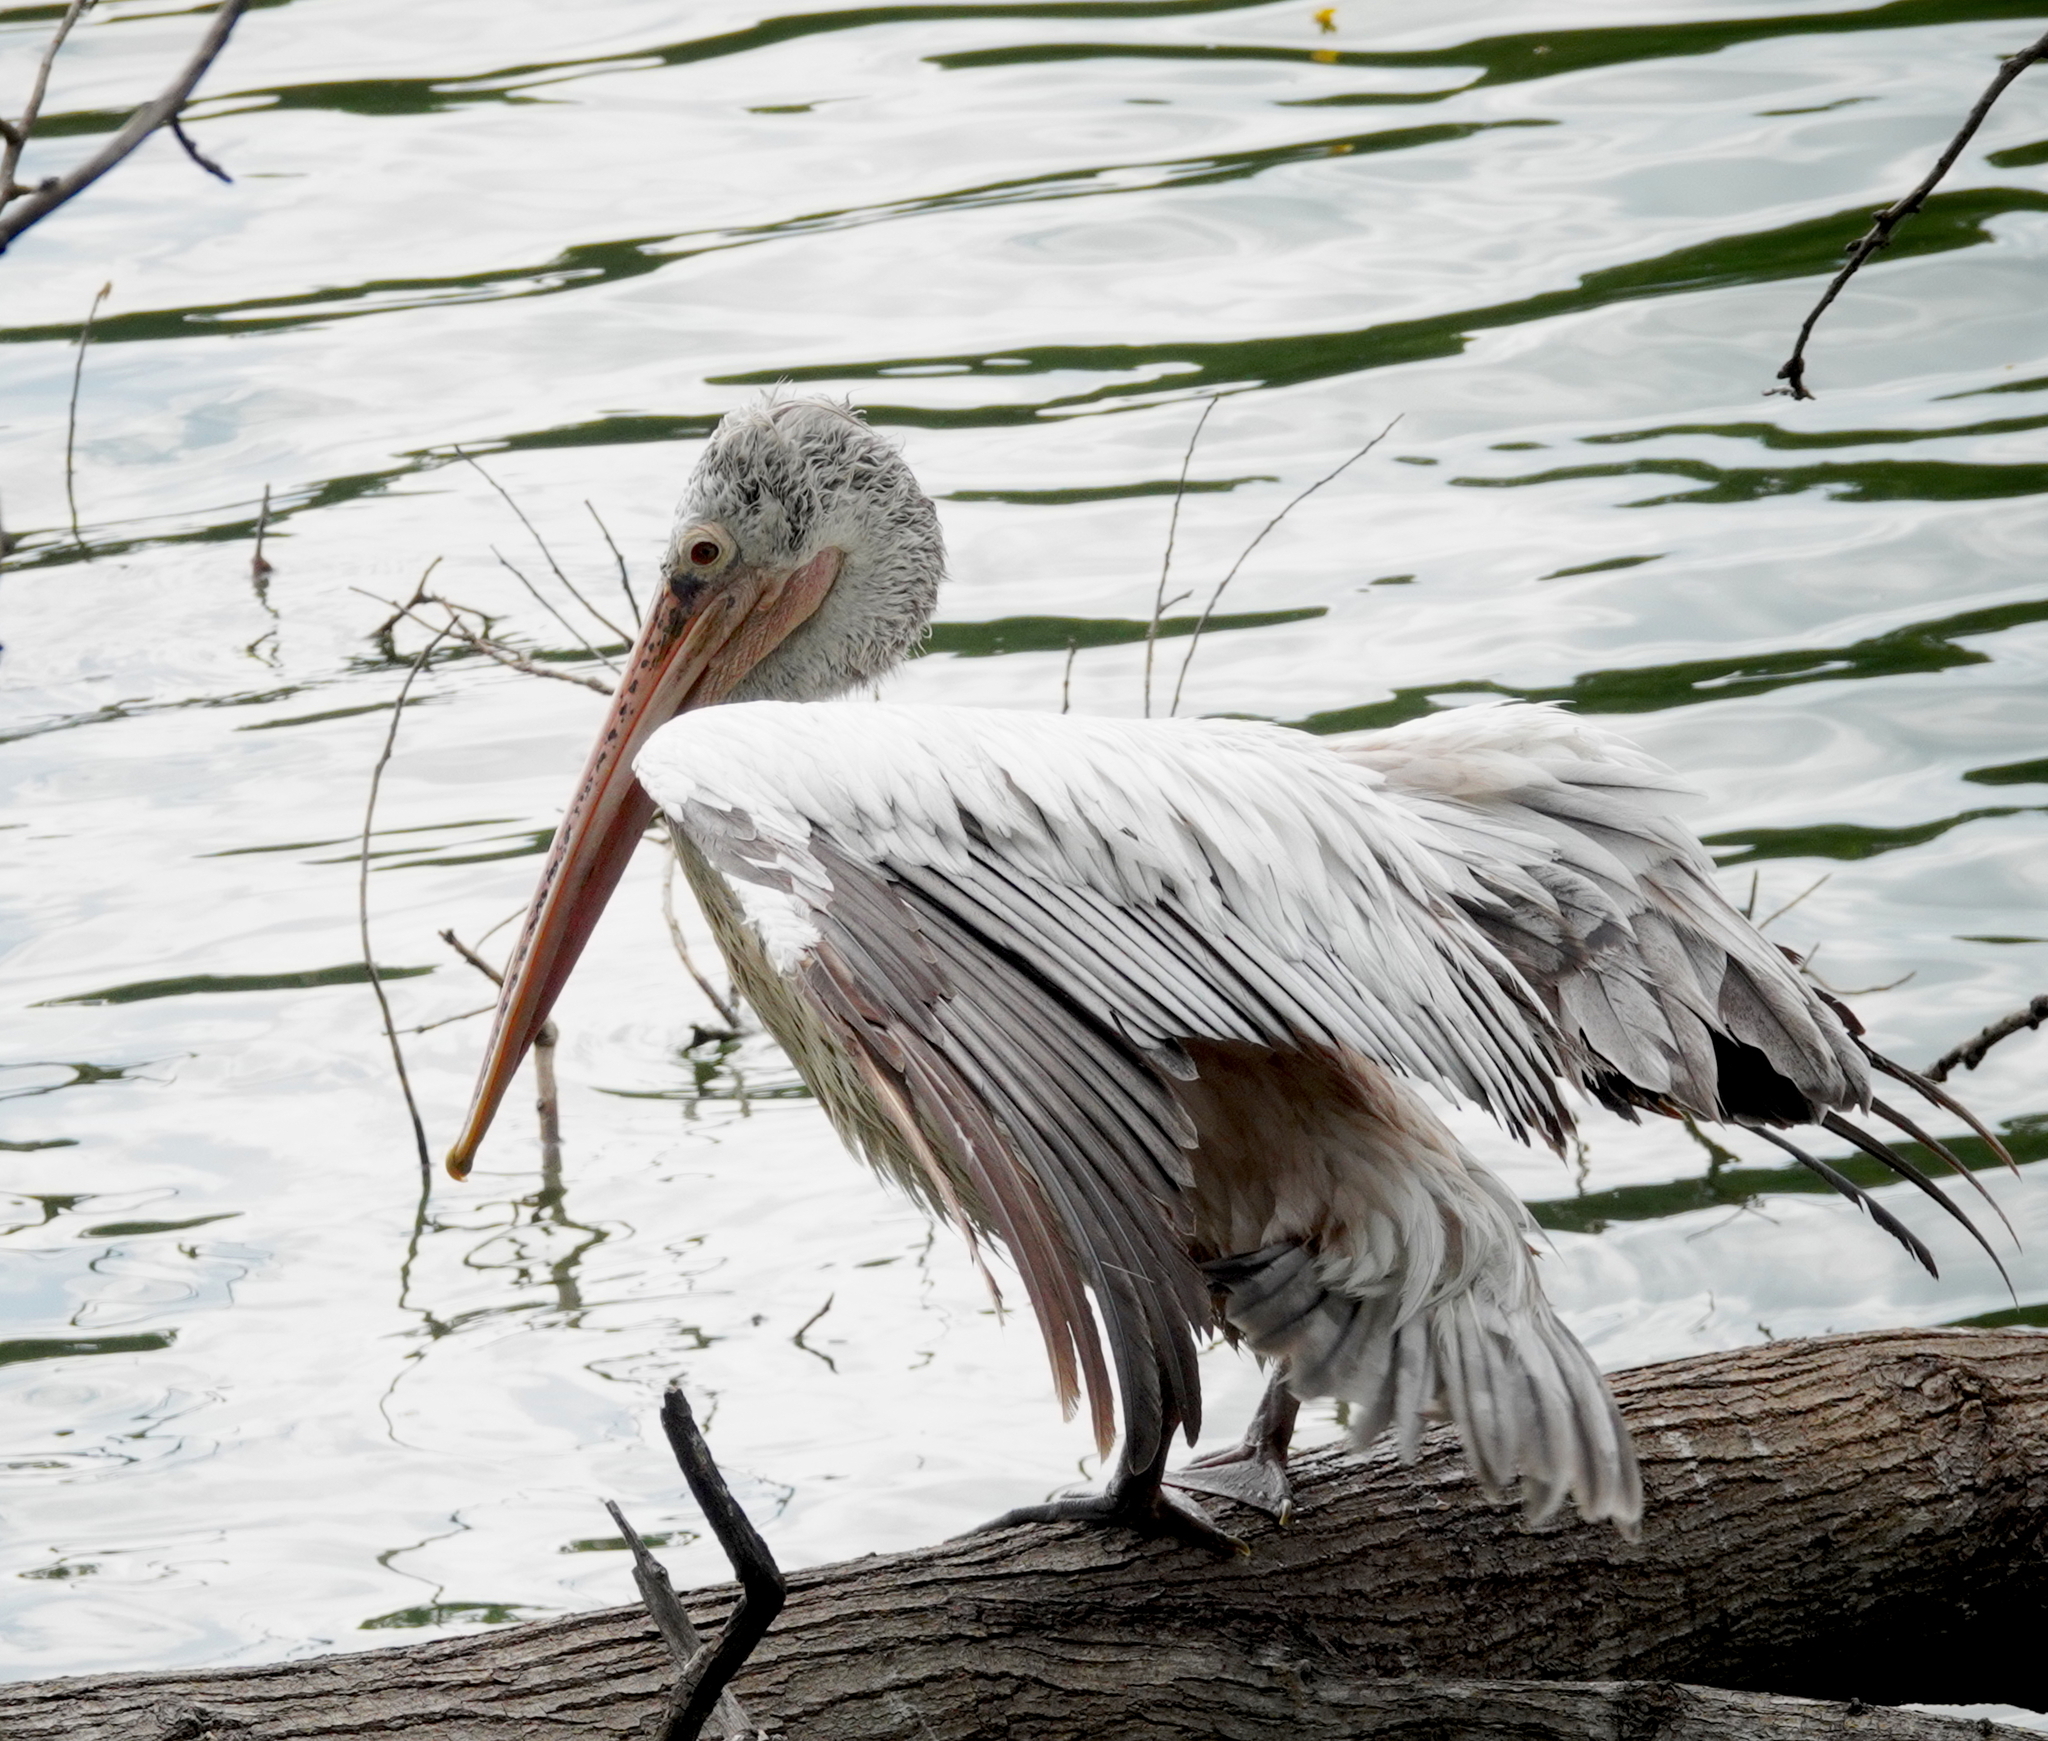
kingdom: Animalia
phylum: Chordata
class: Aves
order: Pelecaniformes
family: Pelecanidae
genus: Pelecanus
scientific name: Pelecanus philippensis
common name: Spot-billed pelican
